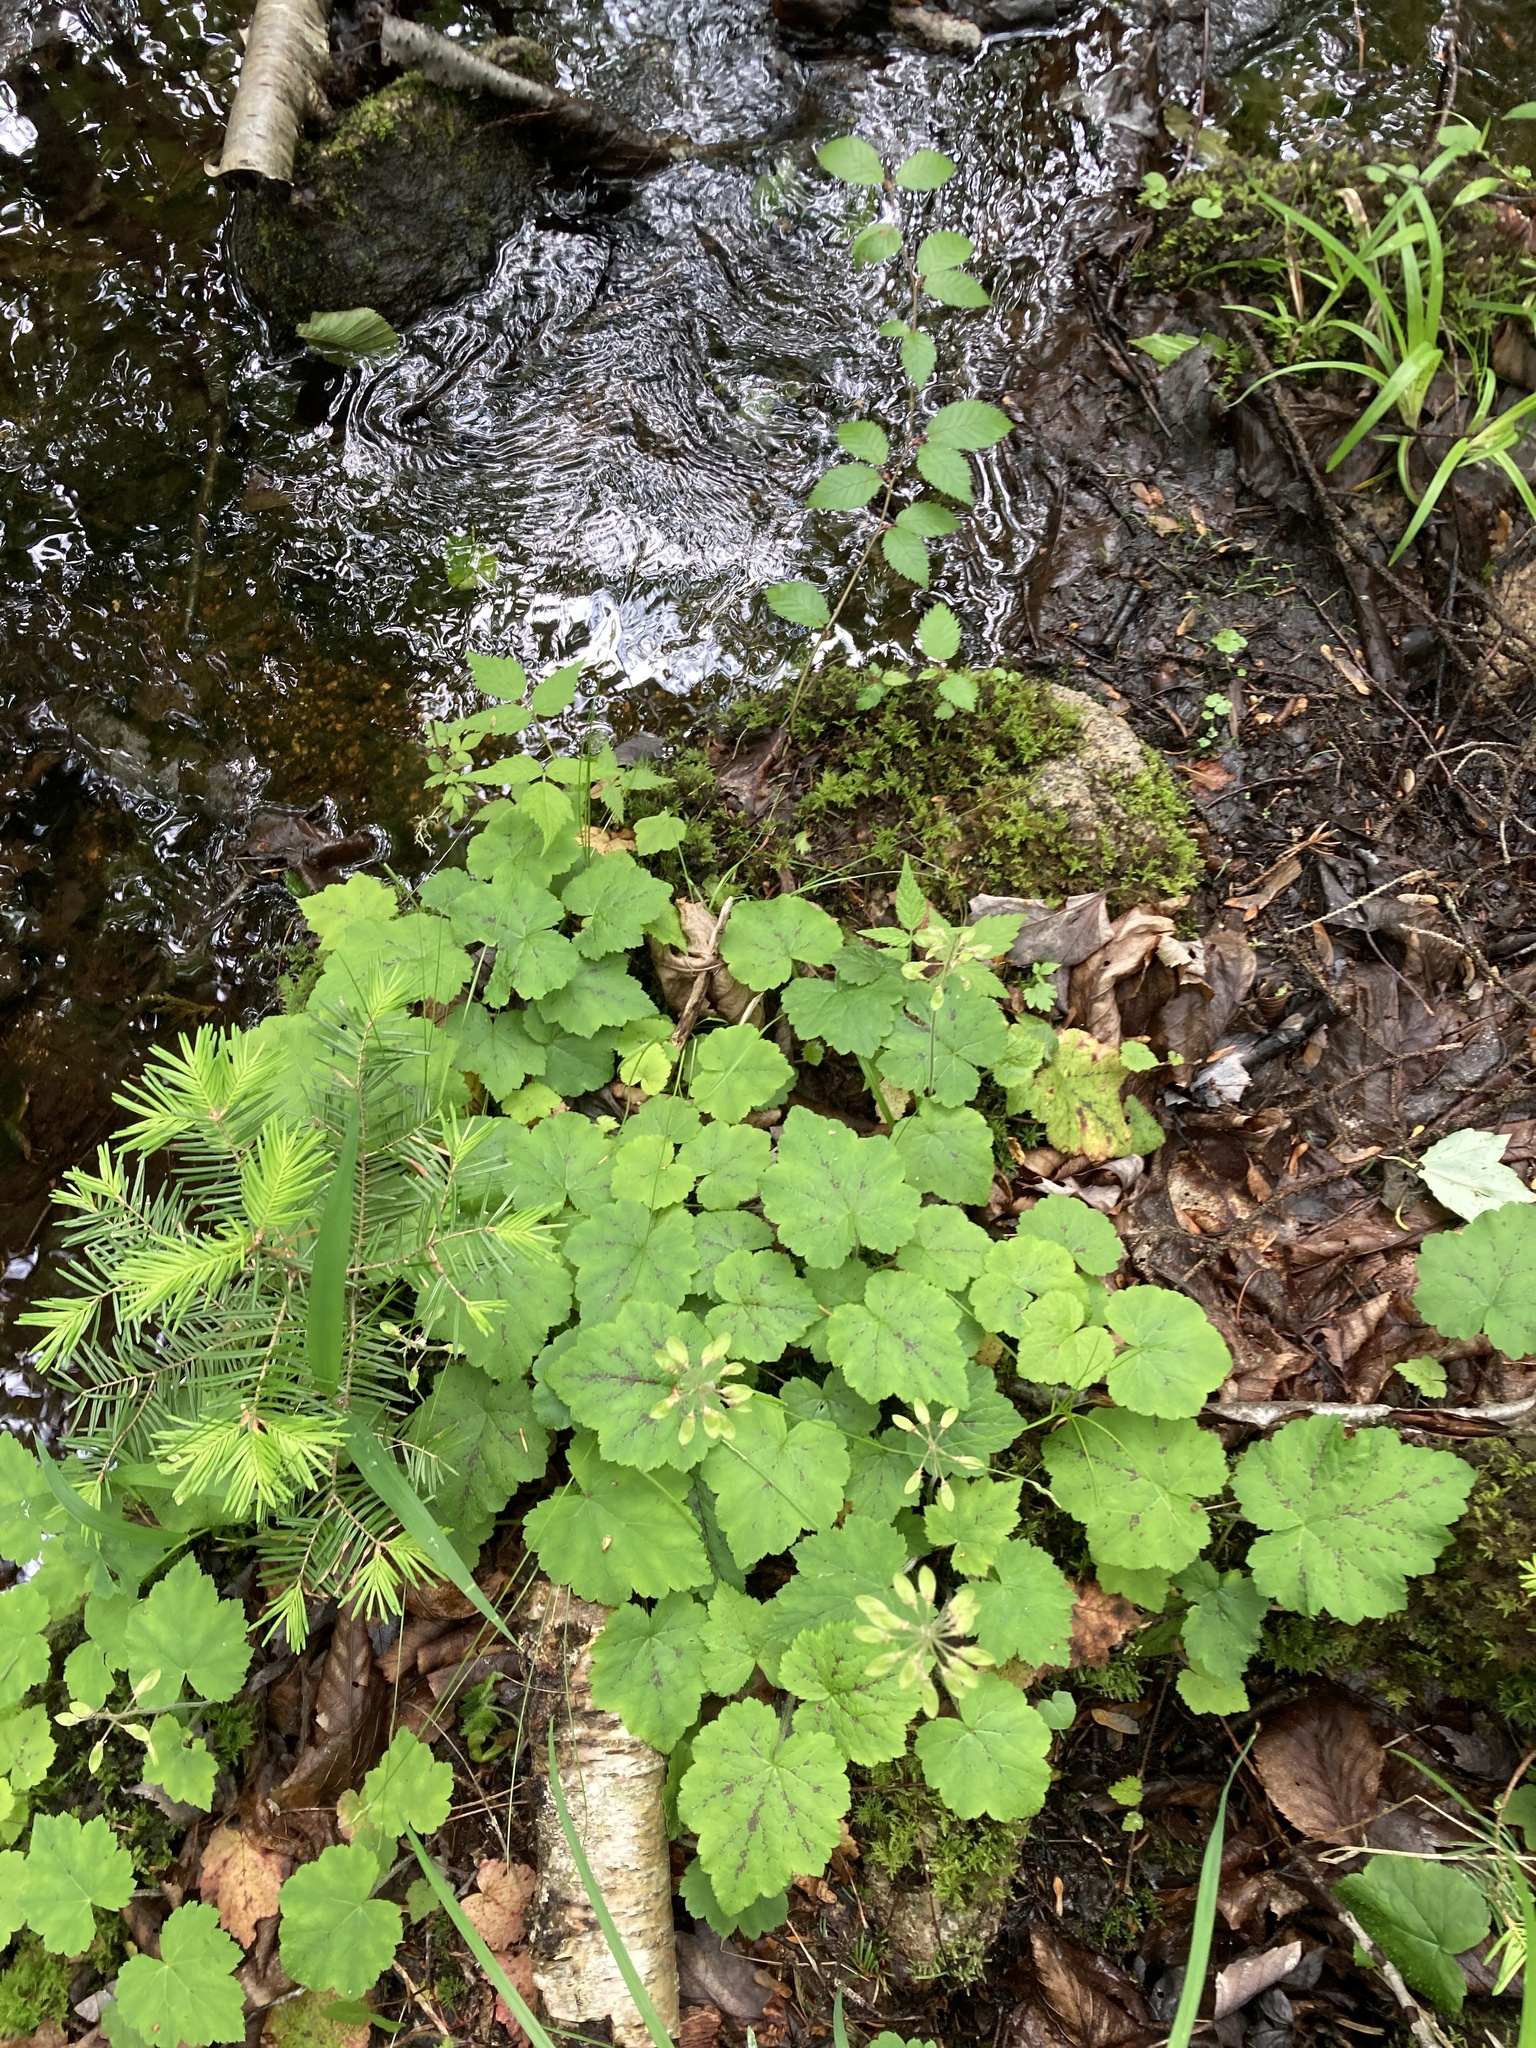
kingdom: Plantae
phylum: Tracheophyta
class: Magnoliopsida
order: Saxifragales
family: Saxifragaceae
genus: Tiarella
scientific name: Tiarella stolonifera
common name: Stoloniferous foamflower
